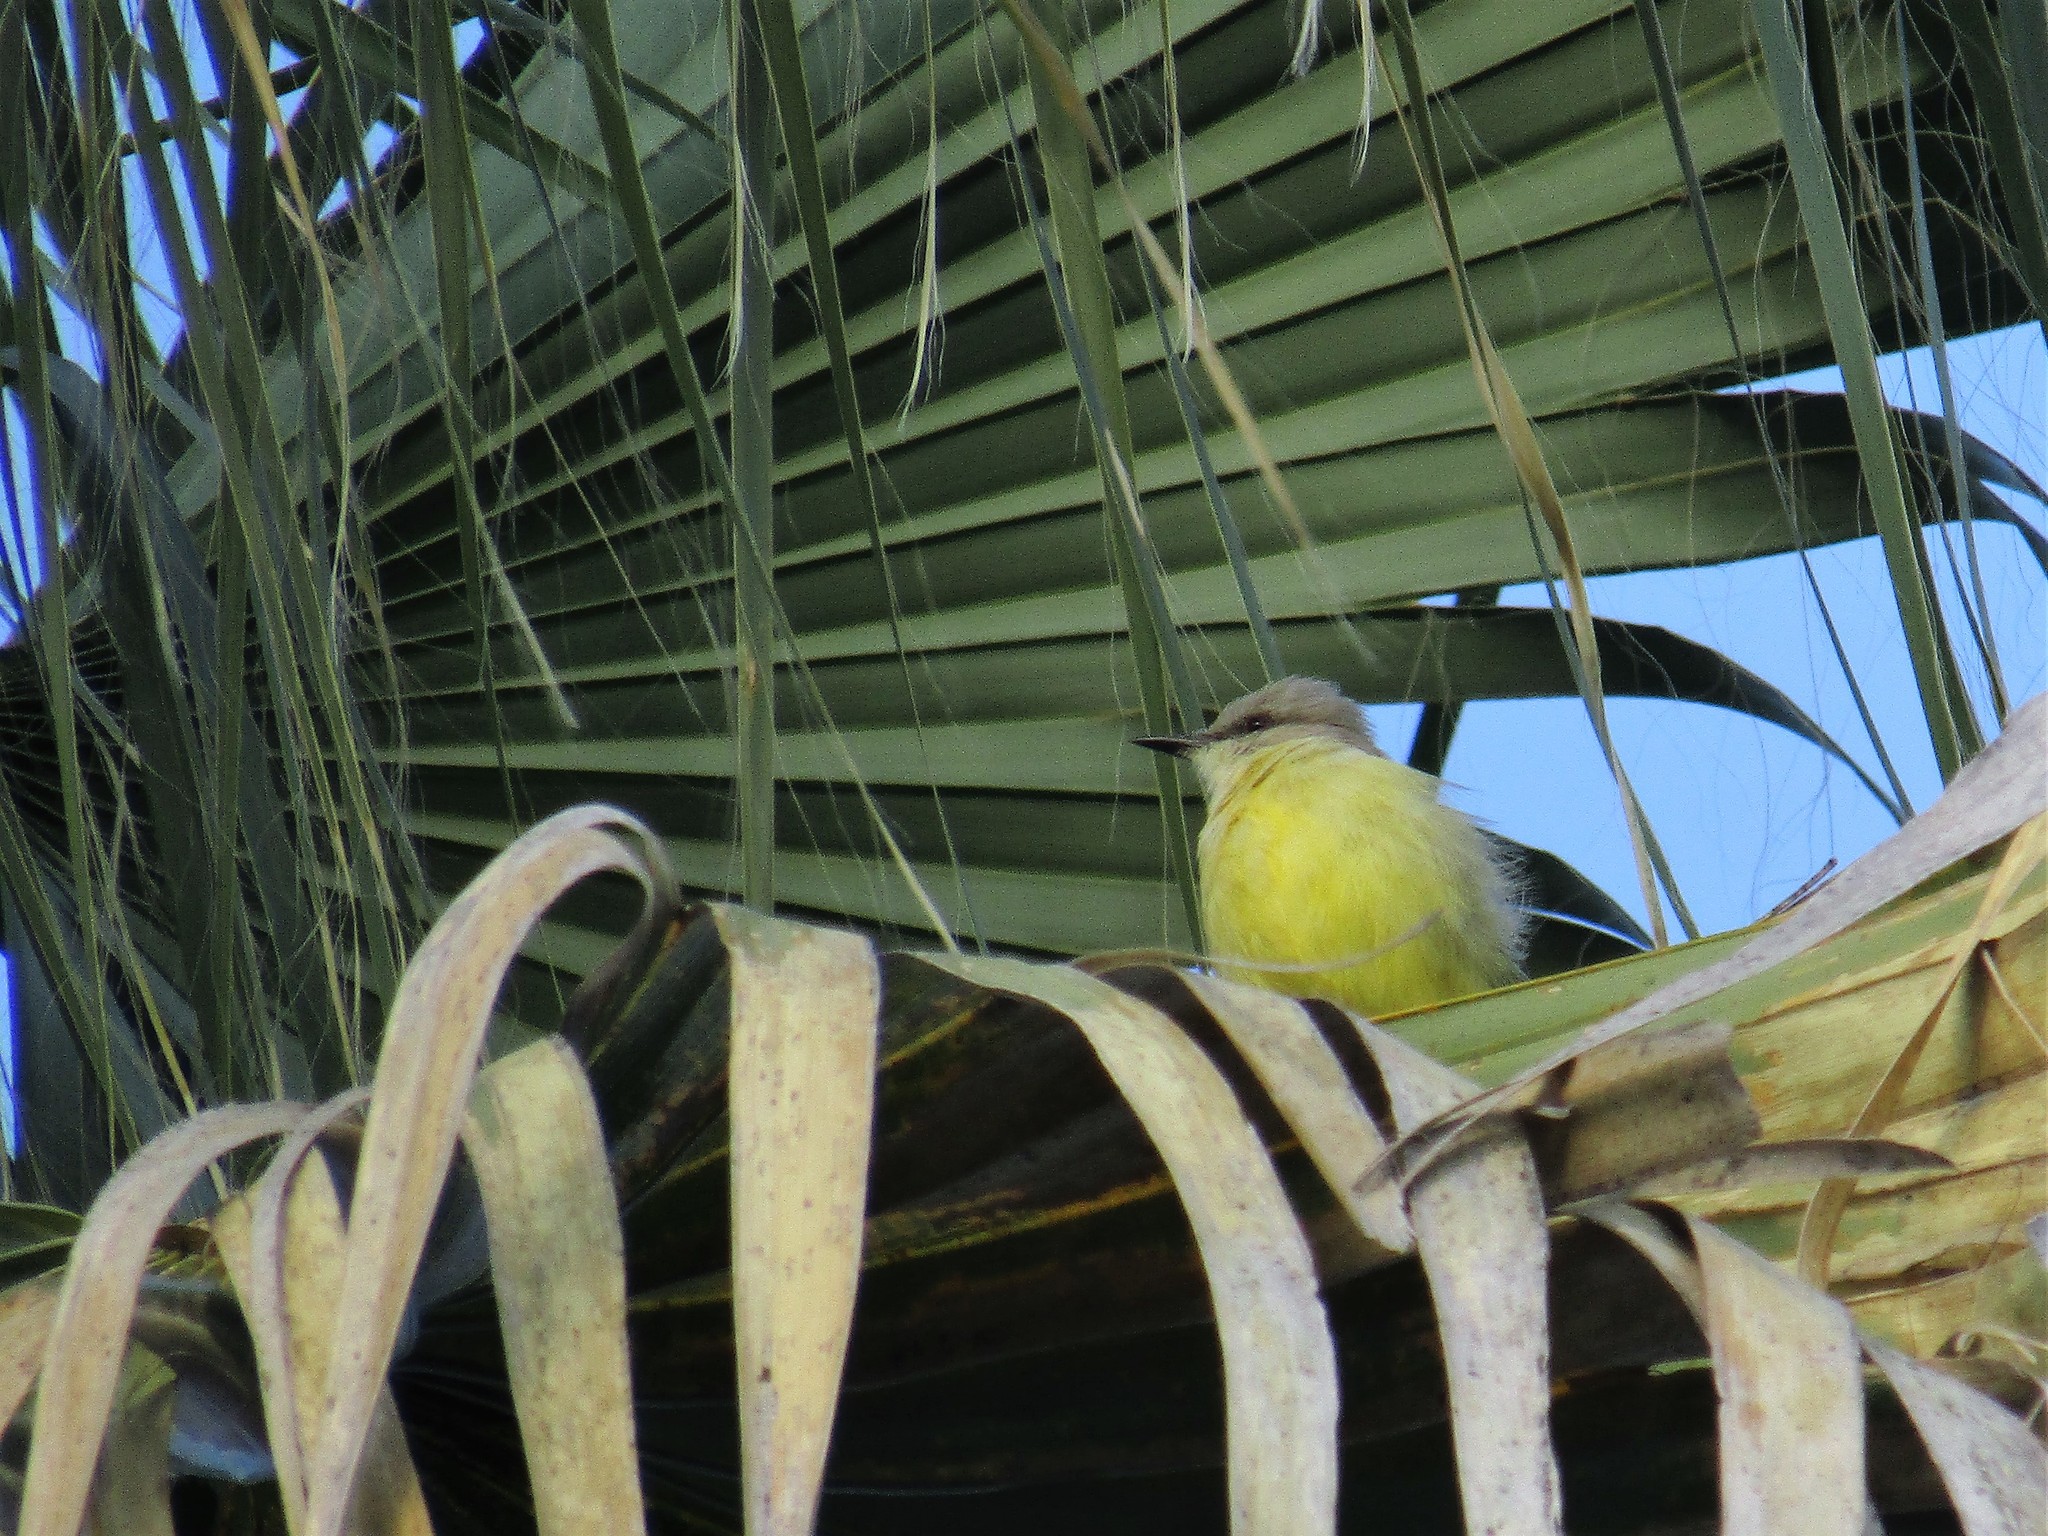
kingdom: Animalia
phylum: Chordata
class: Aves
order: Passeriformes
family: Tyrannidae
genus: Machetornis
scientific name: Machetornis rixosa
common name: Cattle tyrant
